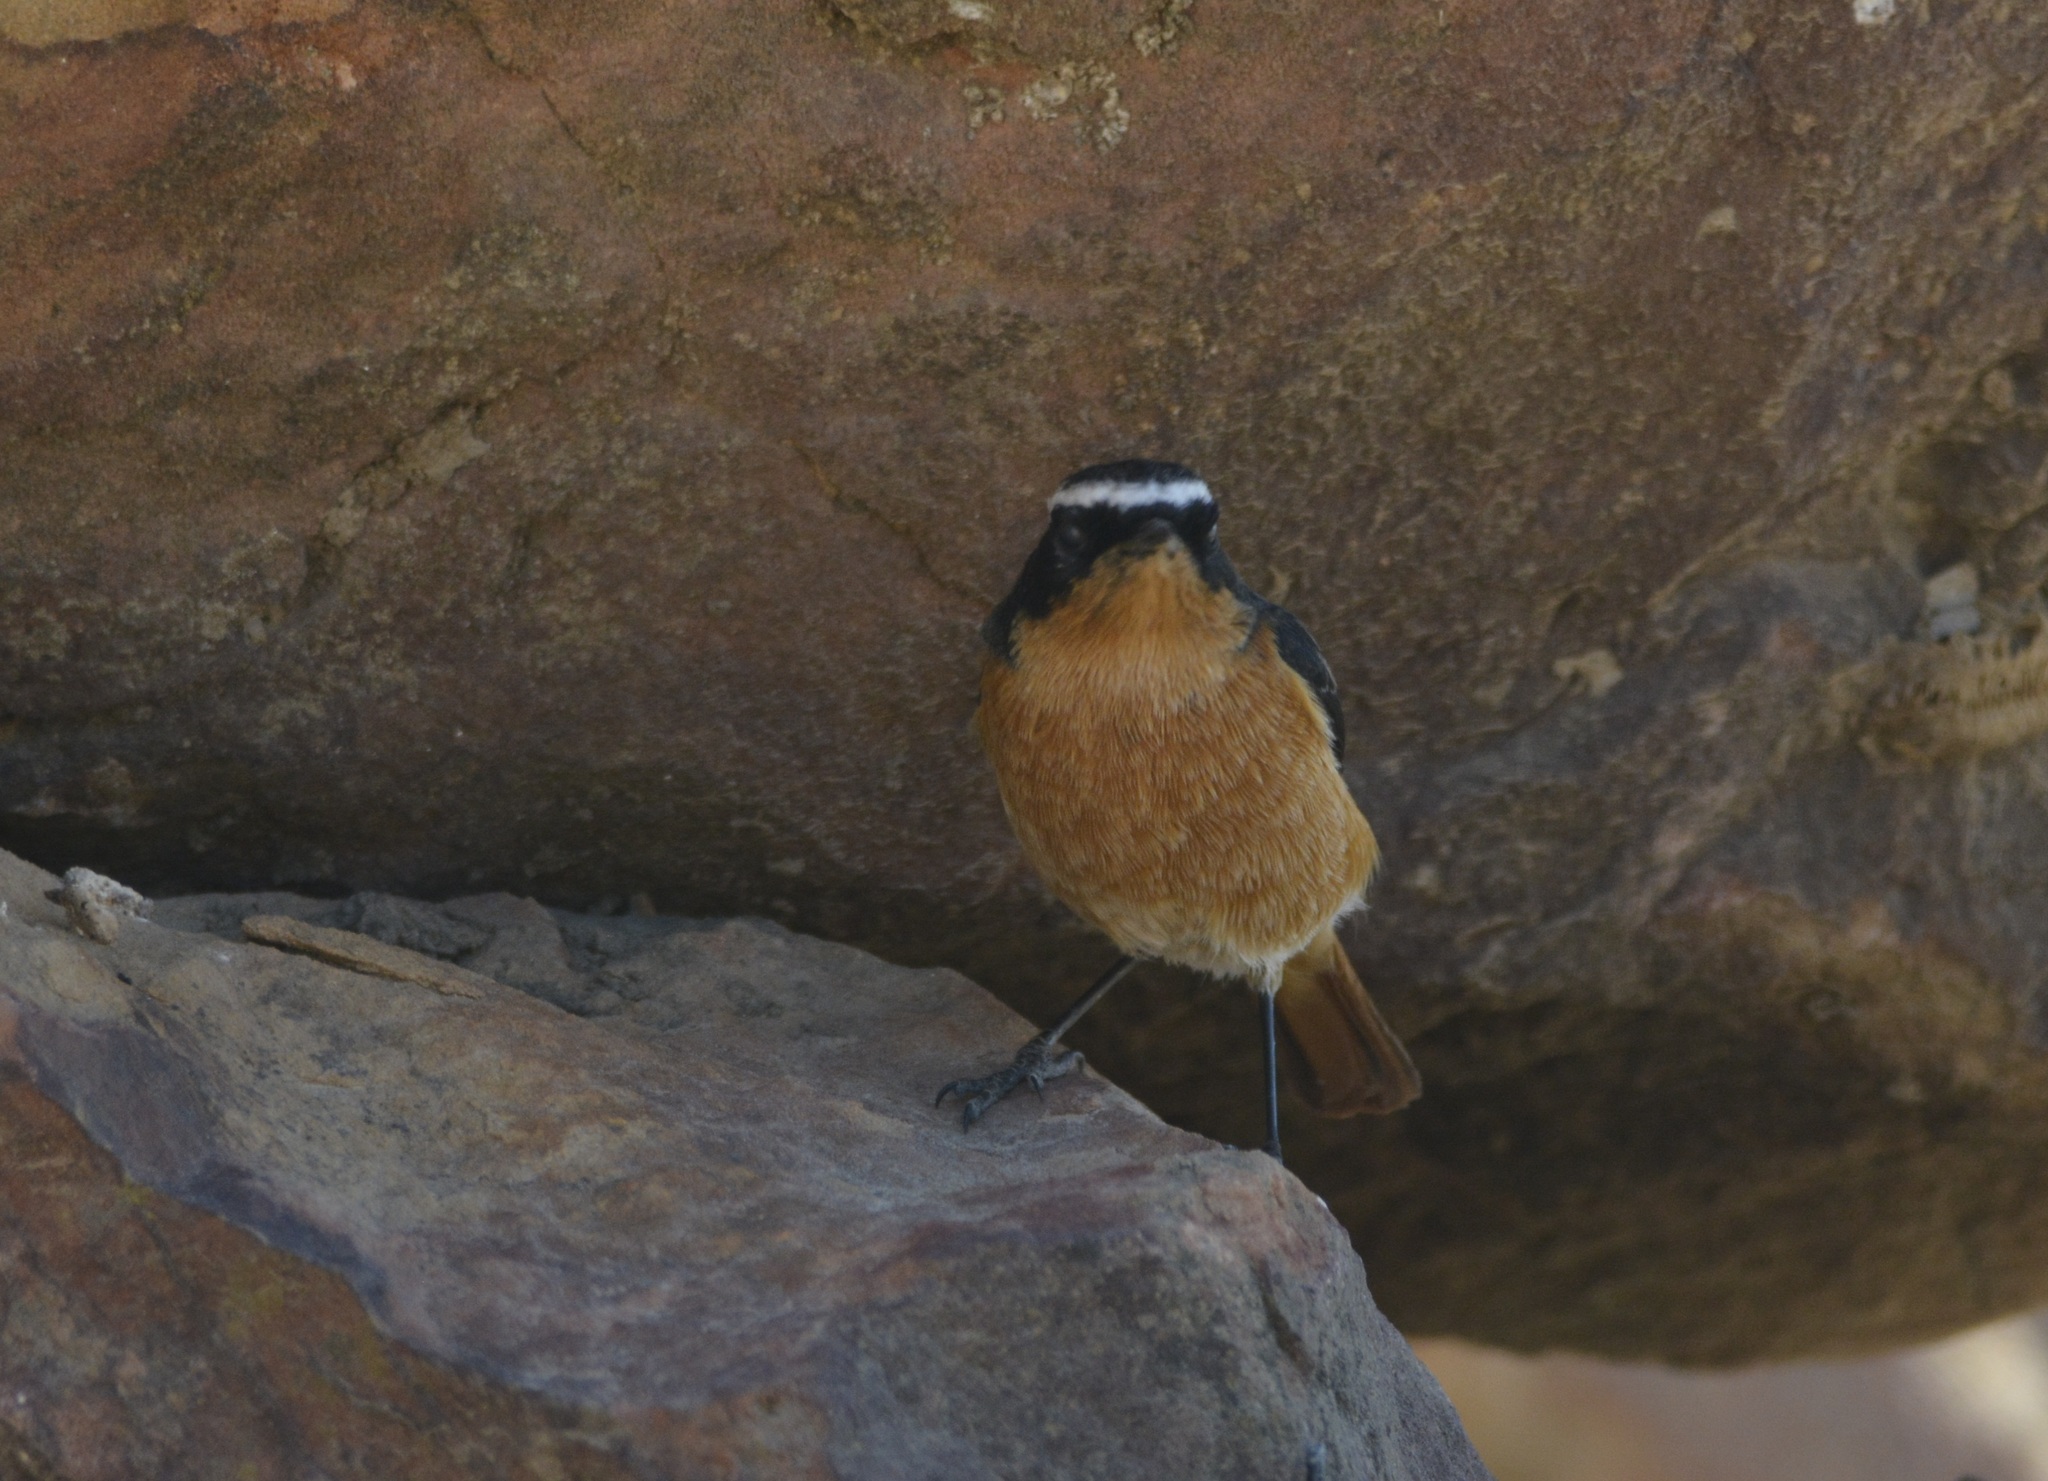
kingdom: Animalia
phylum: Chordata
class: Aves
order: Passeriformes
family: Muscicapidae
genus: Phoenicurus
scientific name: Phoenicurus moussieri
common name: Moussier's redstart
